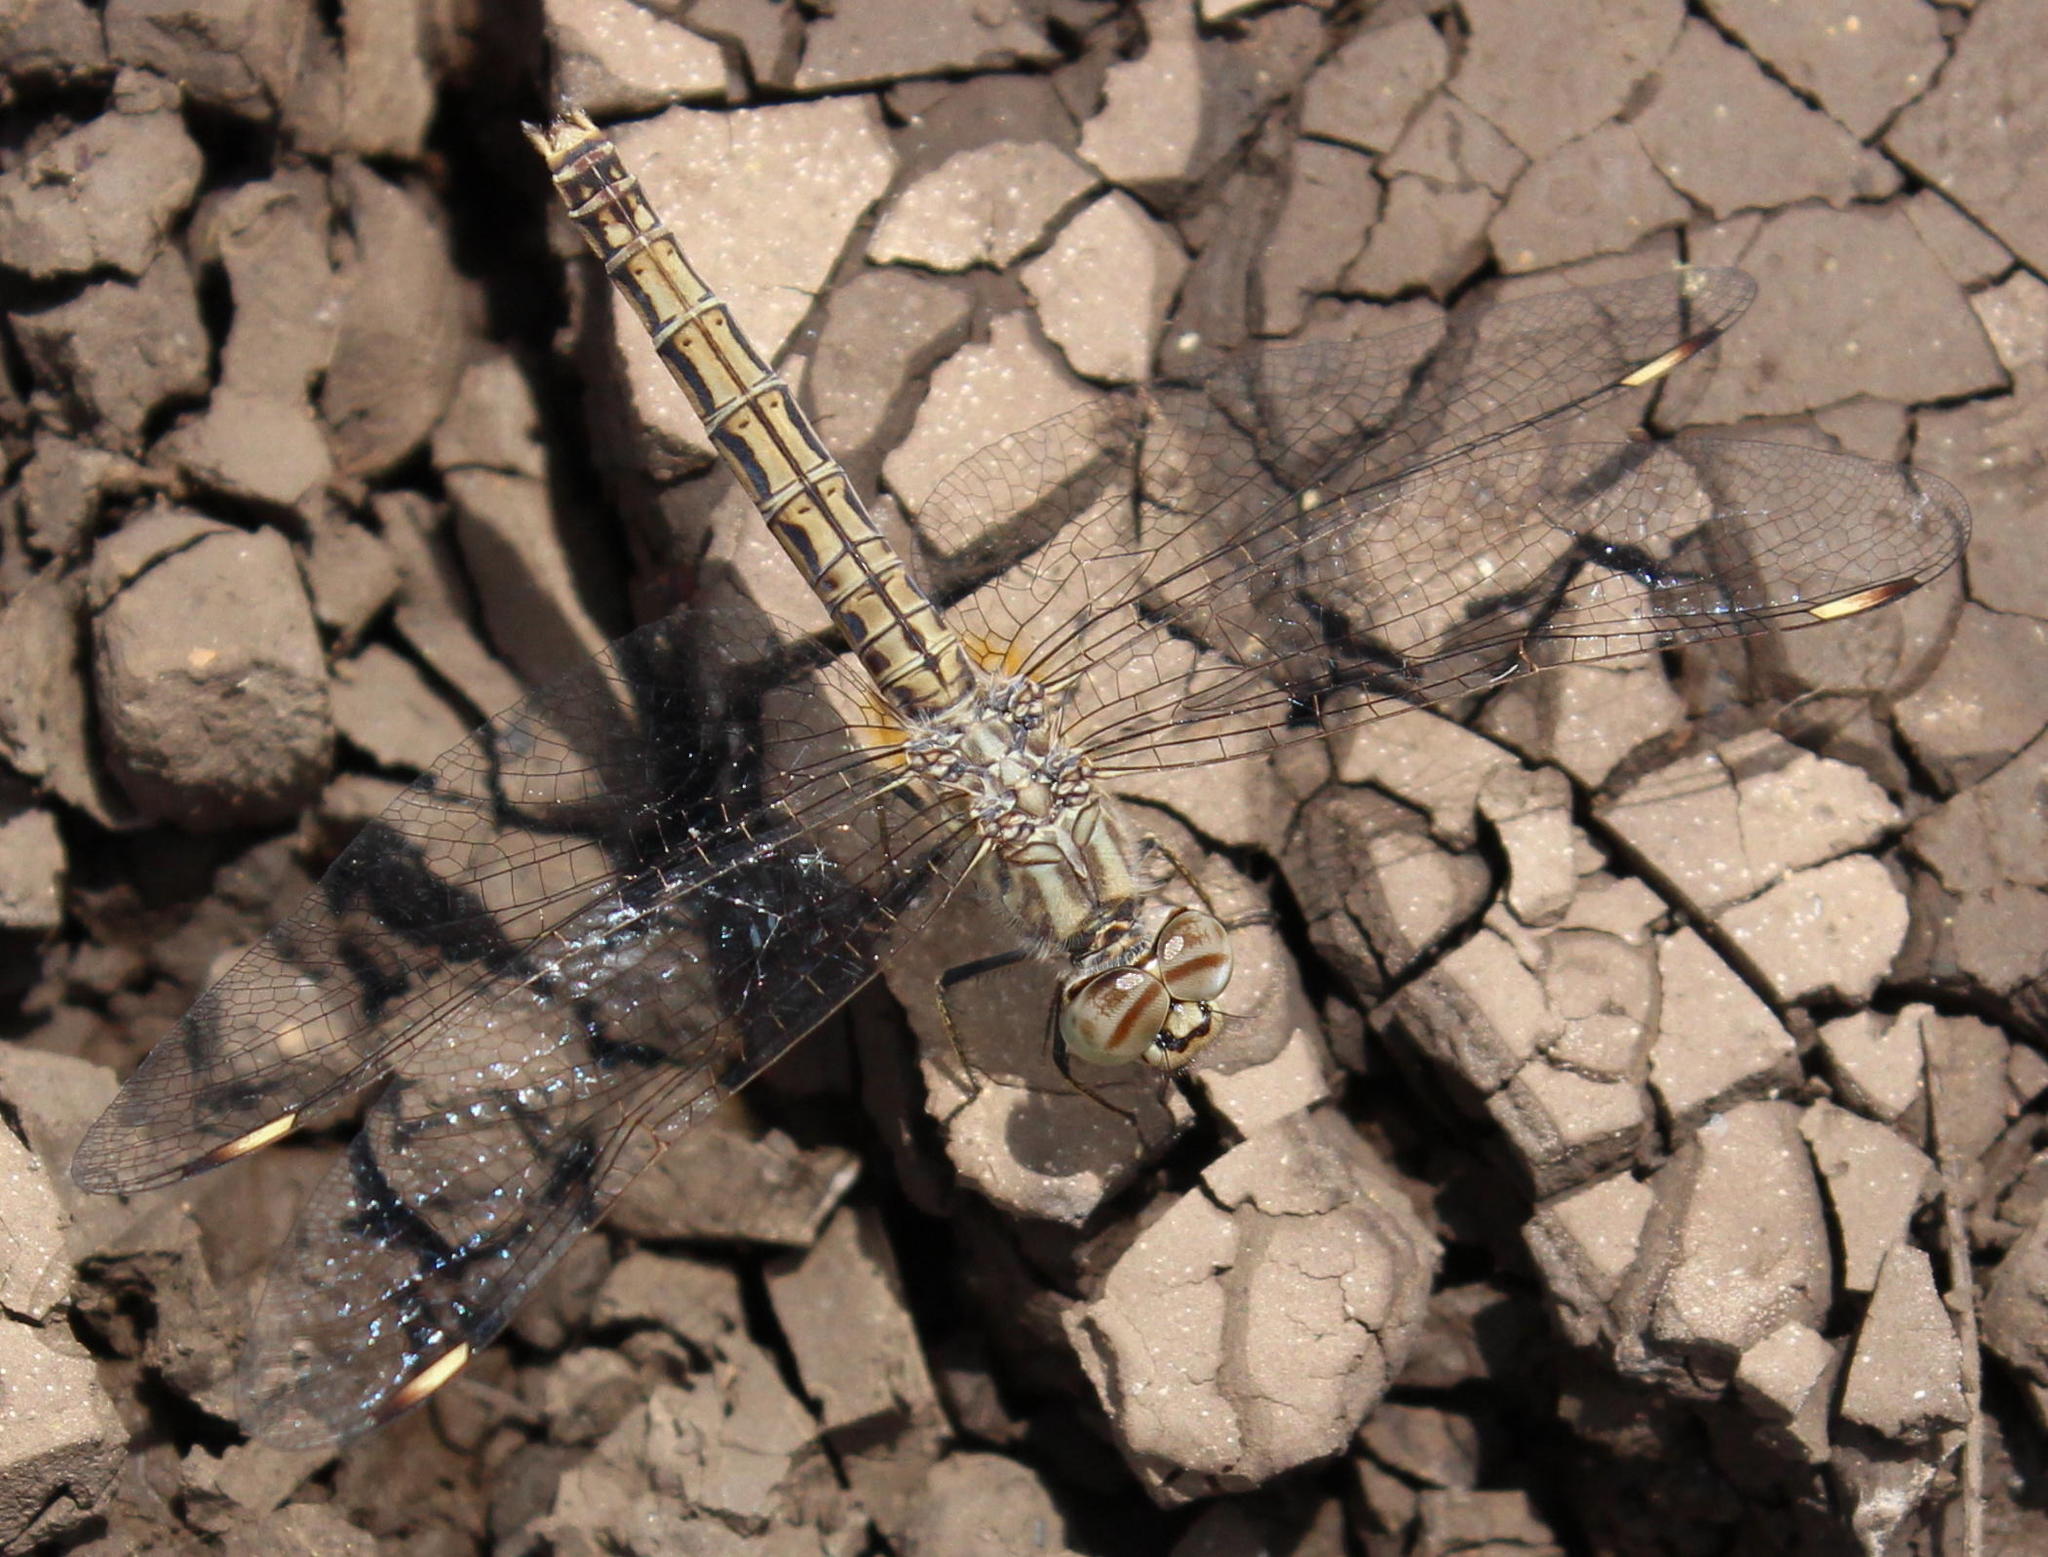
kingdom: Animalia
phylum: Arthropoda
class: Insecta
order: Odonata
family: Libellulidae
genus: Brachythemis
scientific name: Brachythemis leucosticta
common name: Banded groundling
